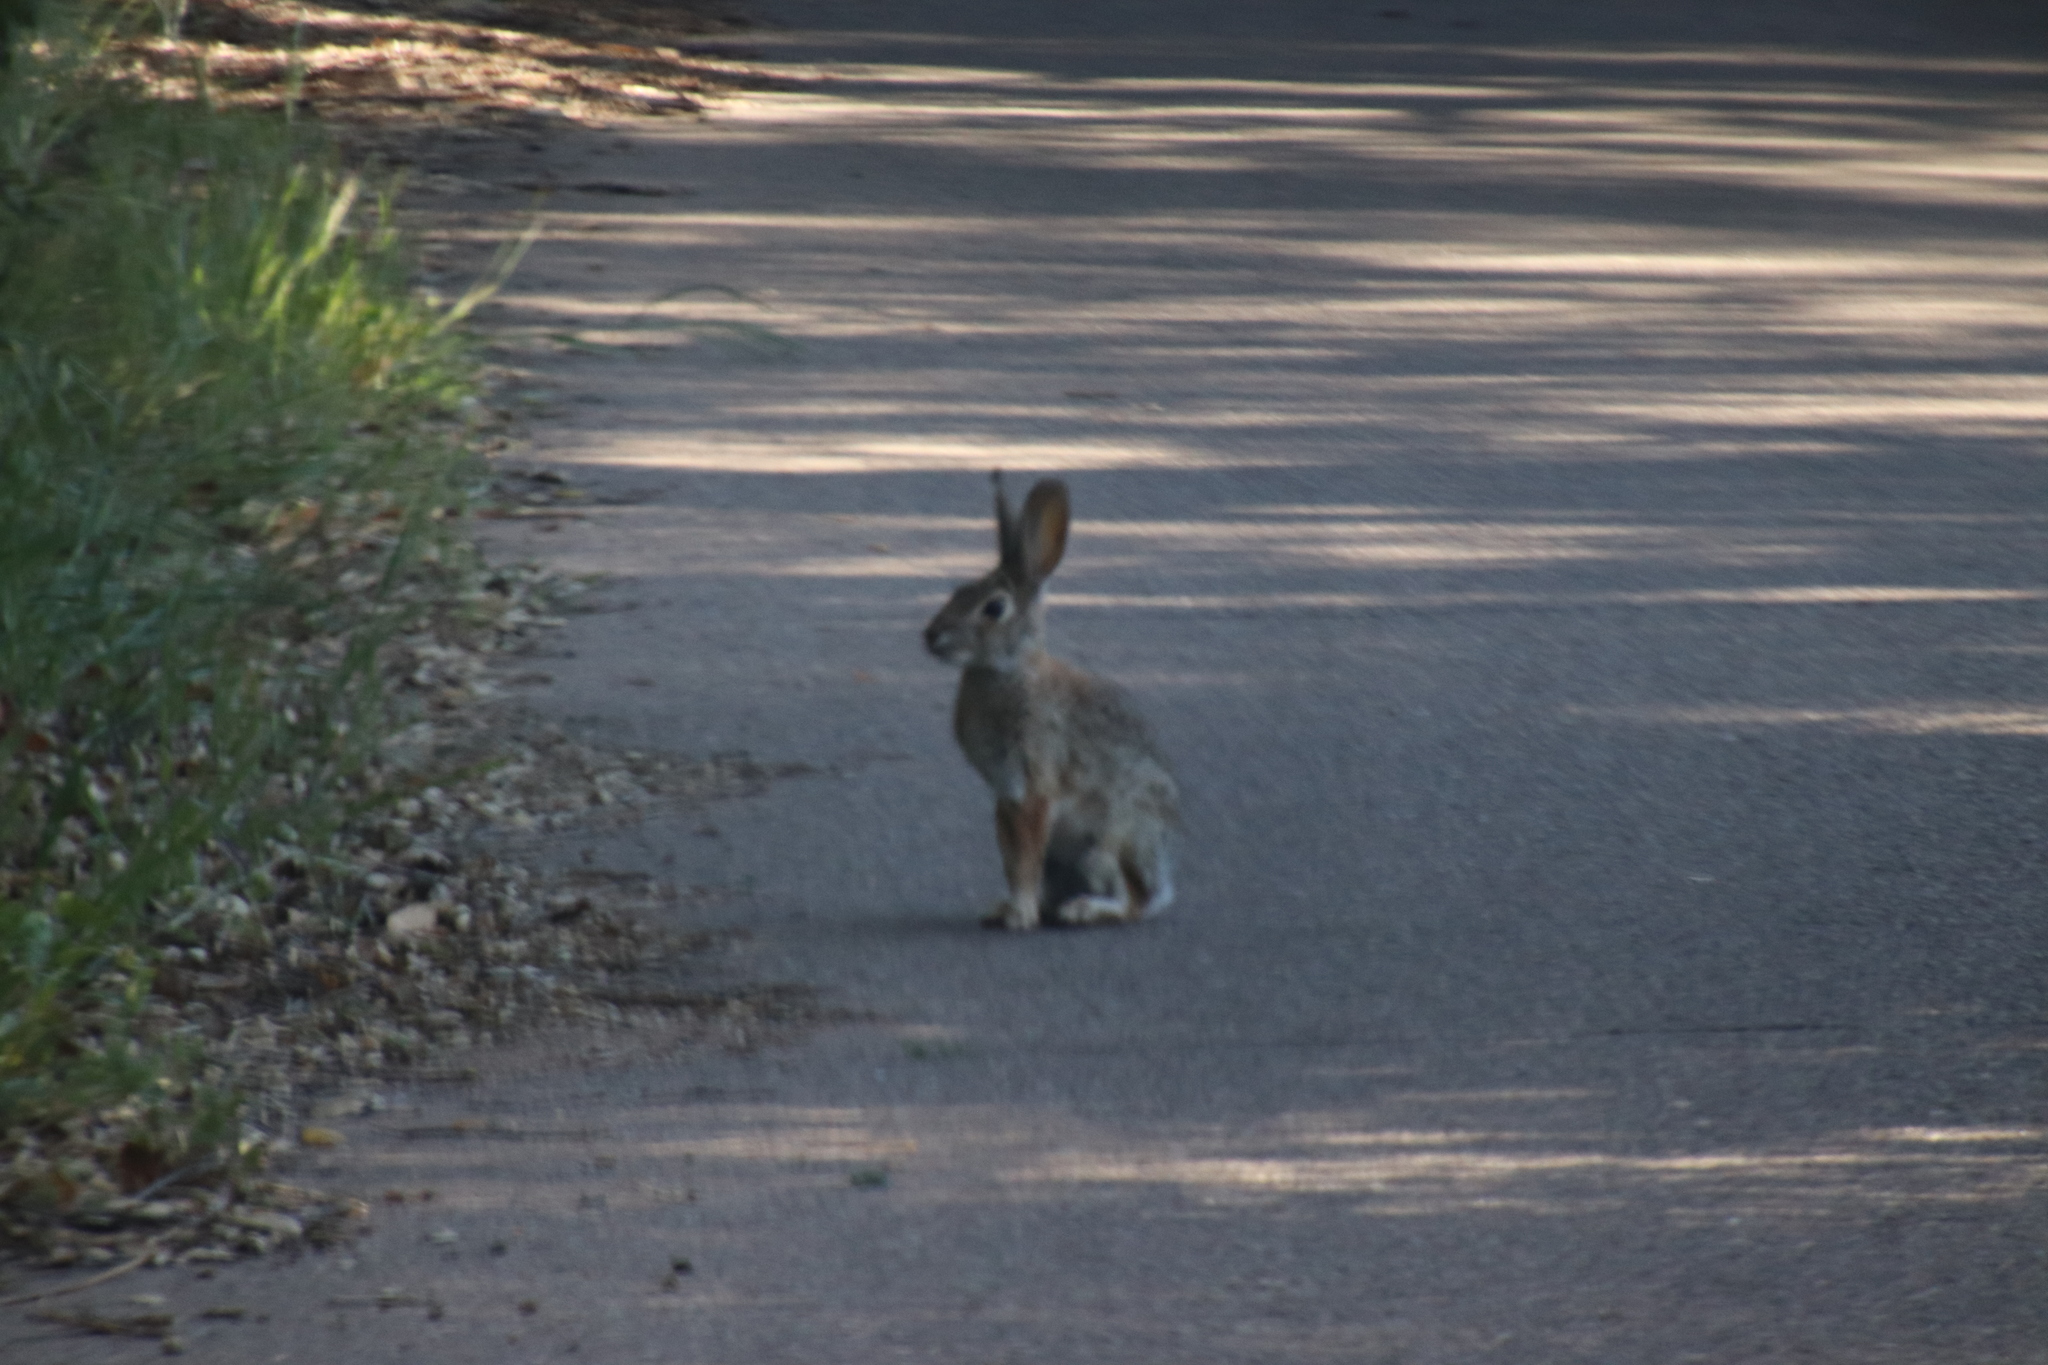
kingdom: Animalia
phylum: Chordata
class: Mammalia
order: Lagomorpha
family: Leporidae
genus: Sylvilagus
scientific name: Sylvilagus audubonii
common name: Desert cottontail
